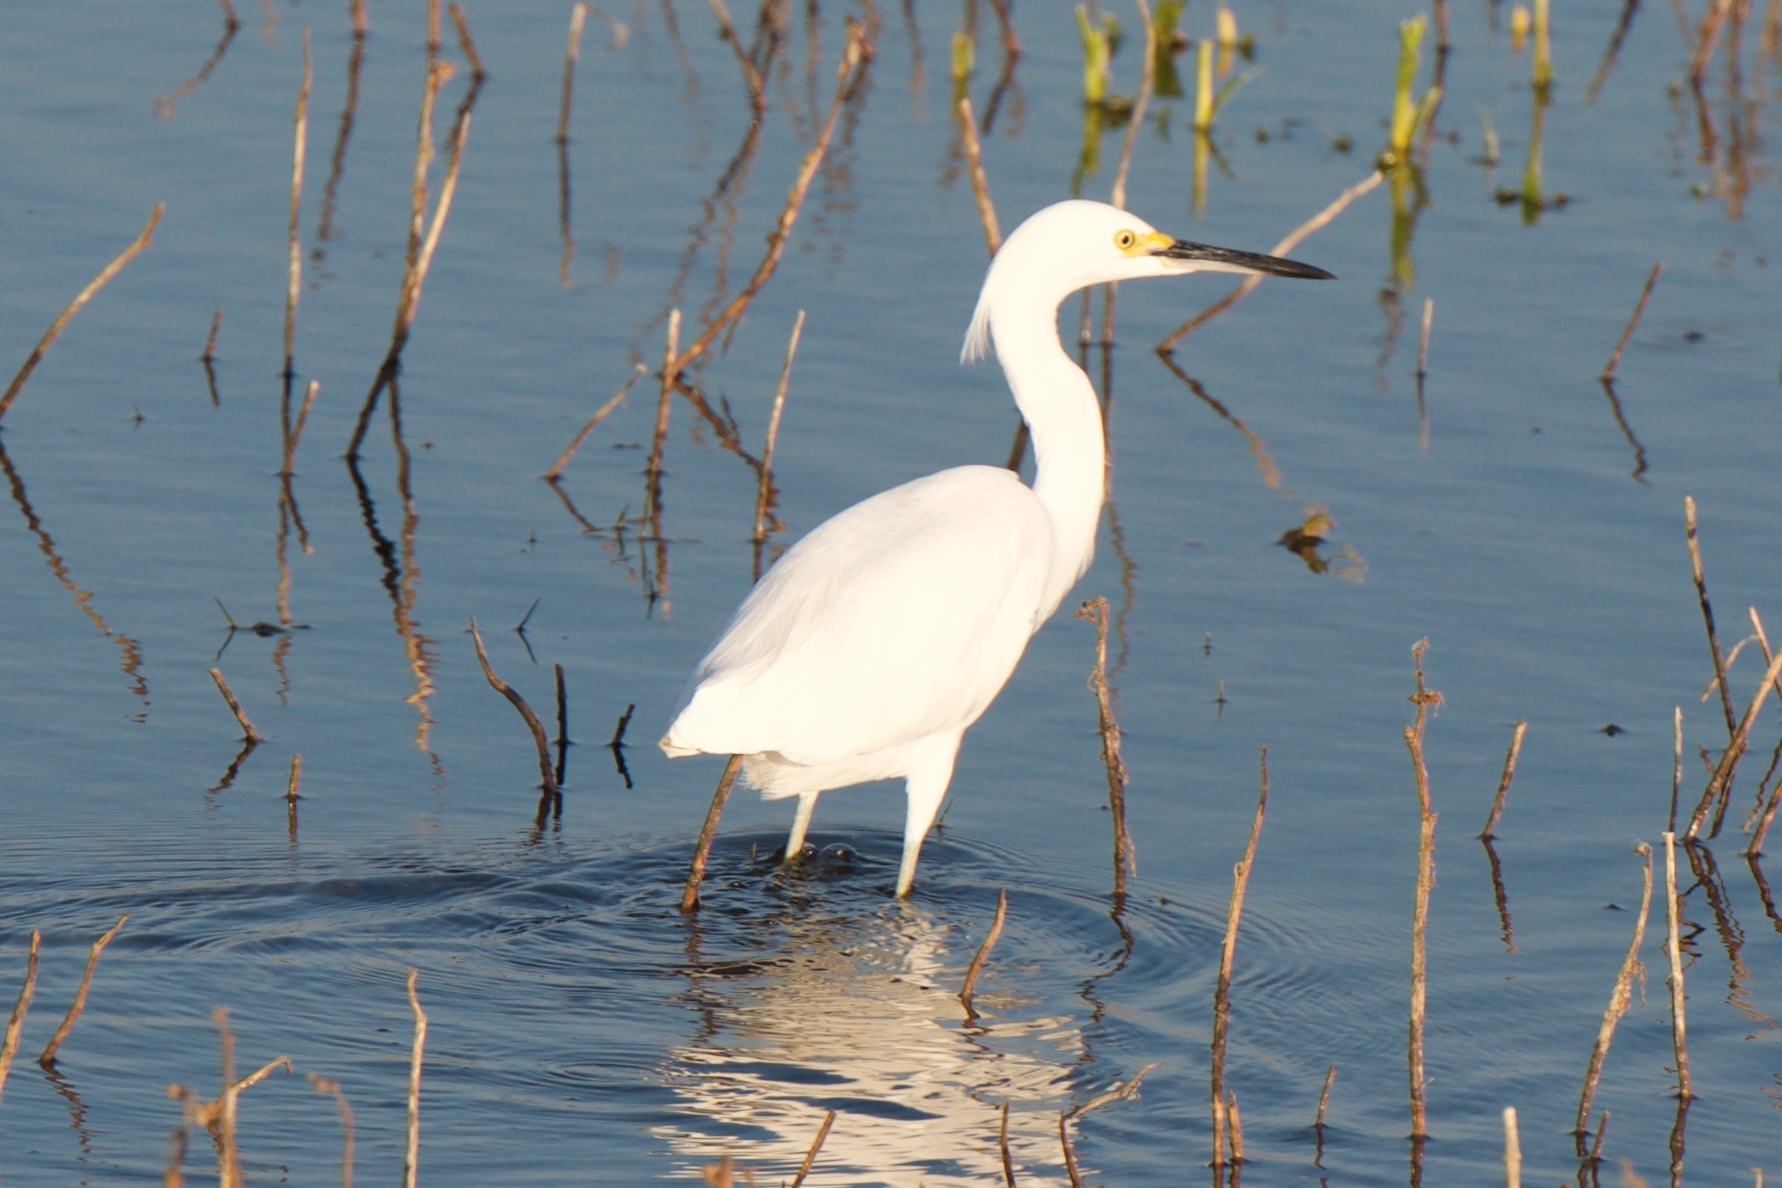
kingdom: Animalia
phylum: Chordata
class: Aves
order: Pelecaniformes
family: Ardeidae
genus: Egretta
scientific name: Egretta thula
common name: Snowy egret
